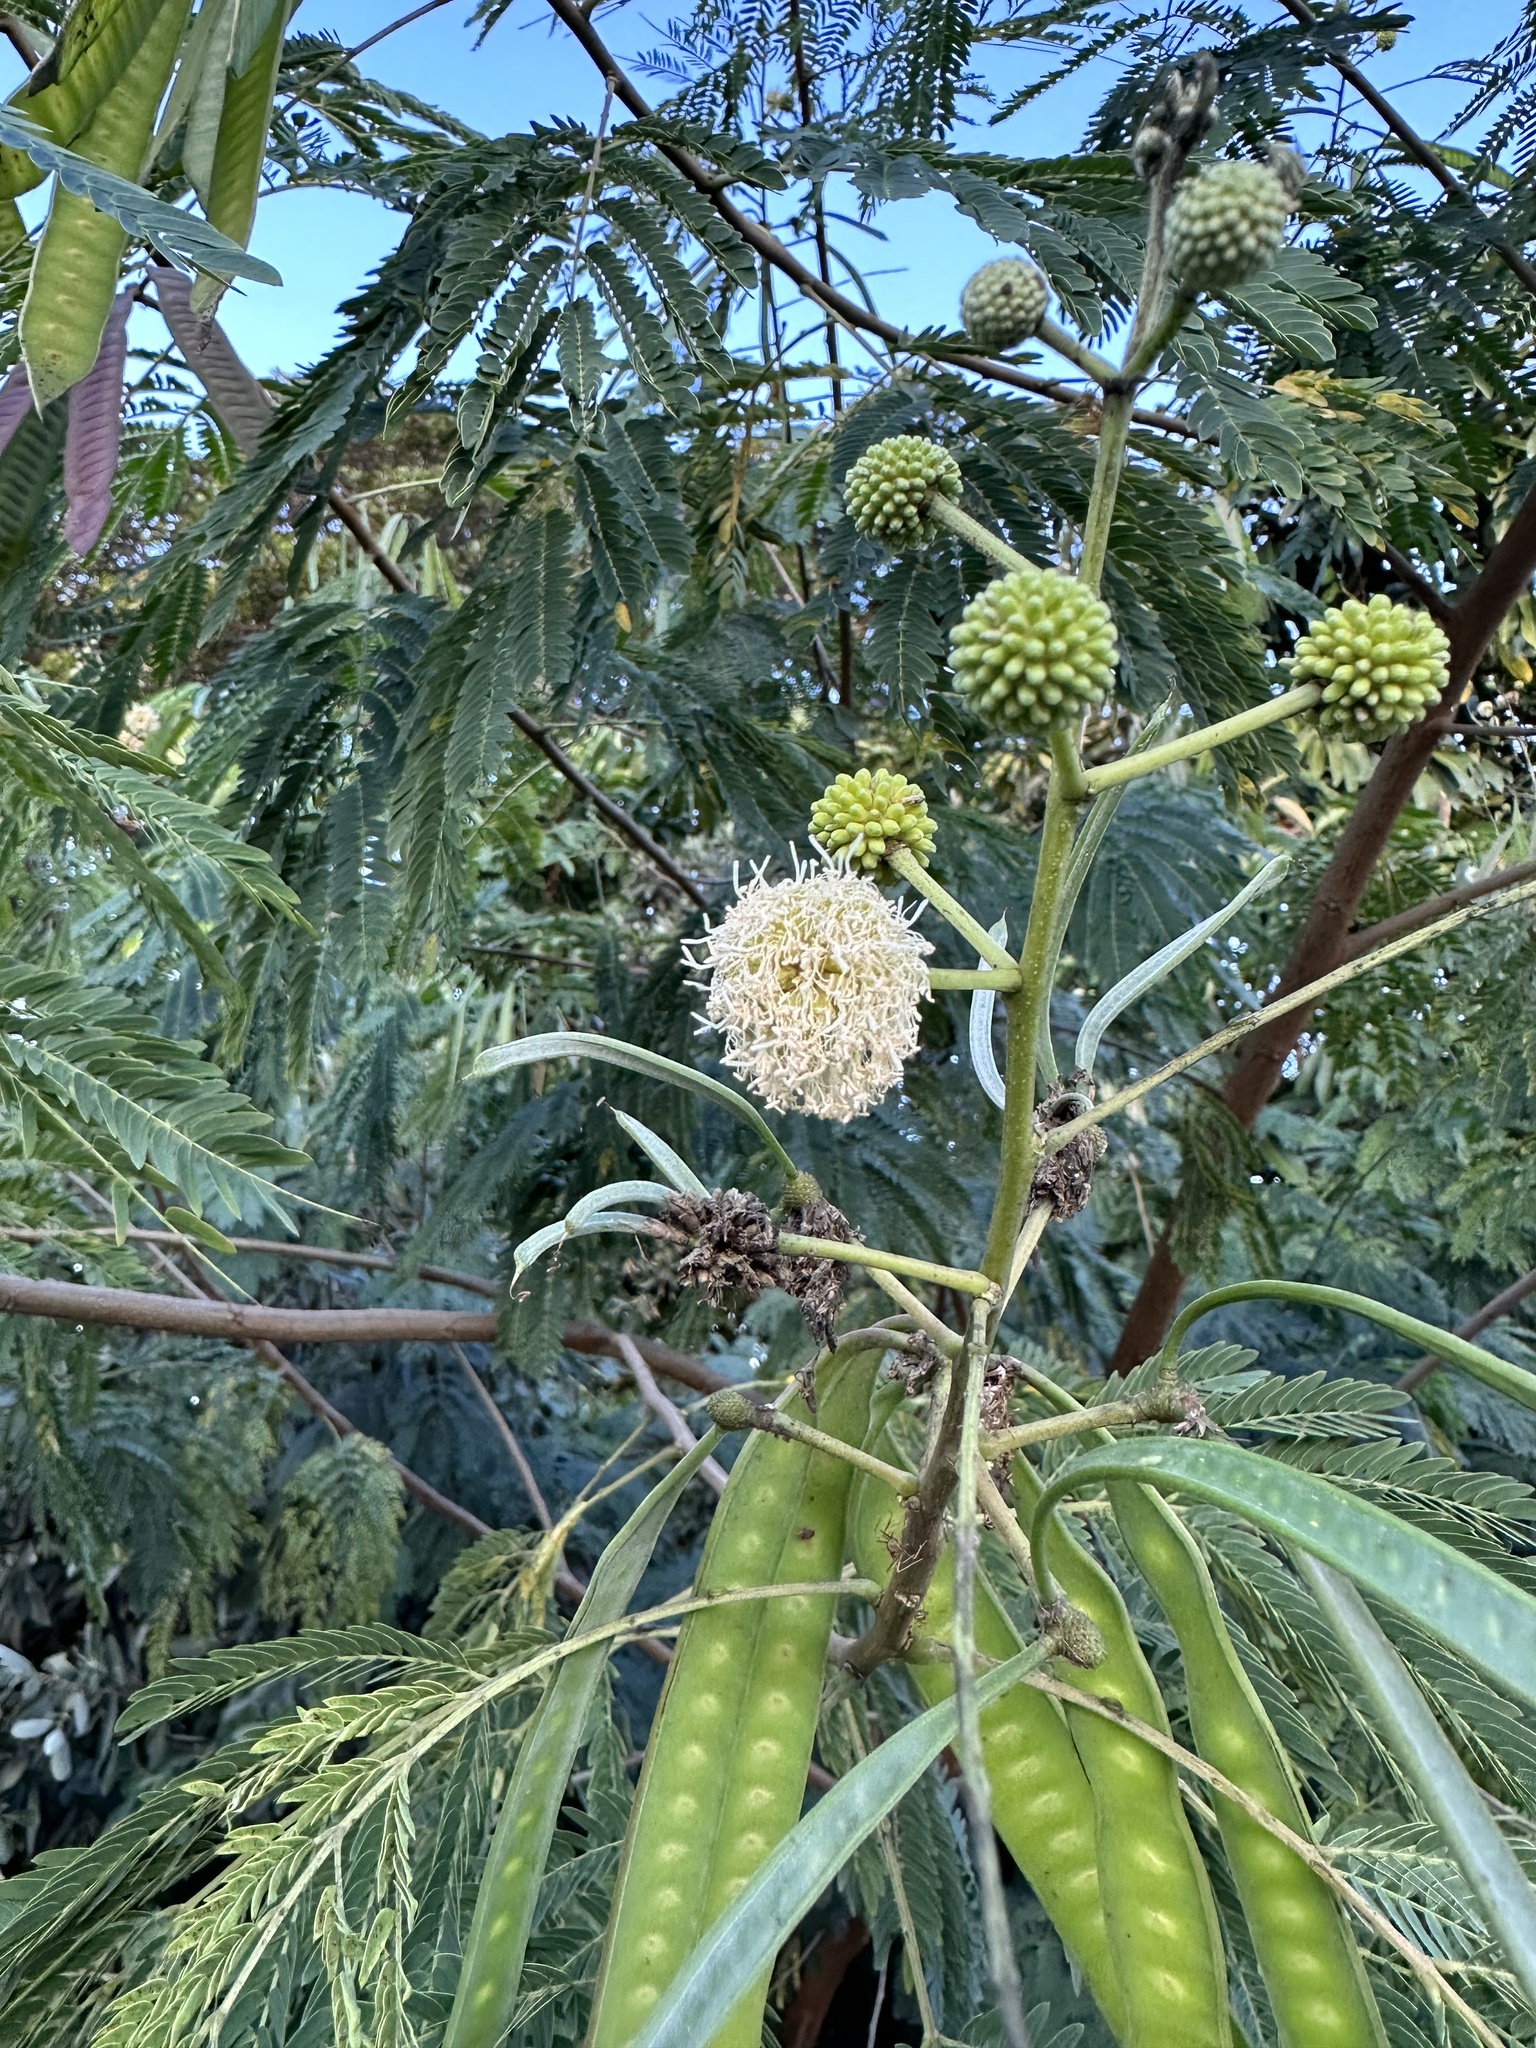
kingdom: Plantae
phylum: Tracheophyta
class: Magnoliopsida
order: Fabales
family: Fabaceae
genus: Leucaena
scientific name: Leucaena leucocephala
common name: White leadtree
